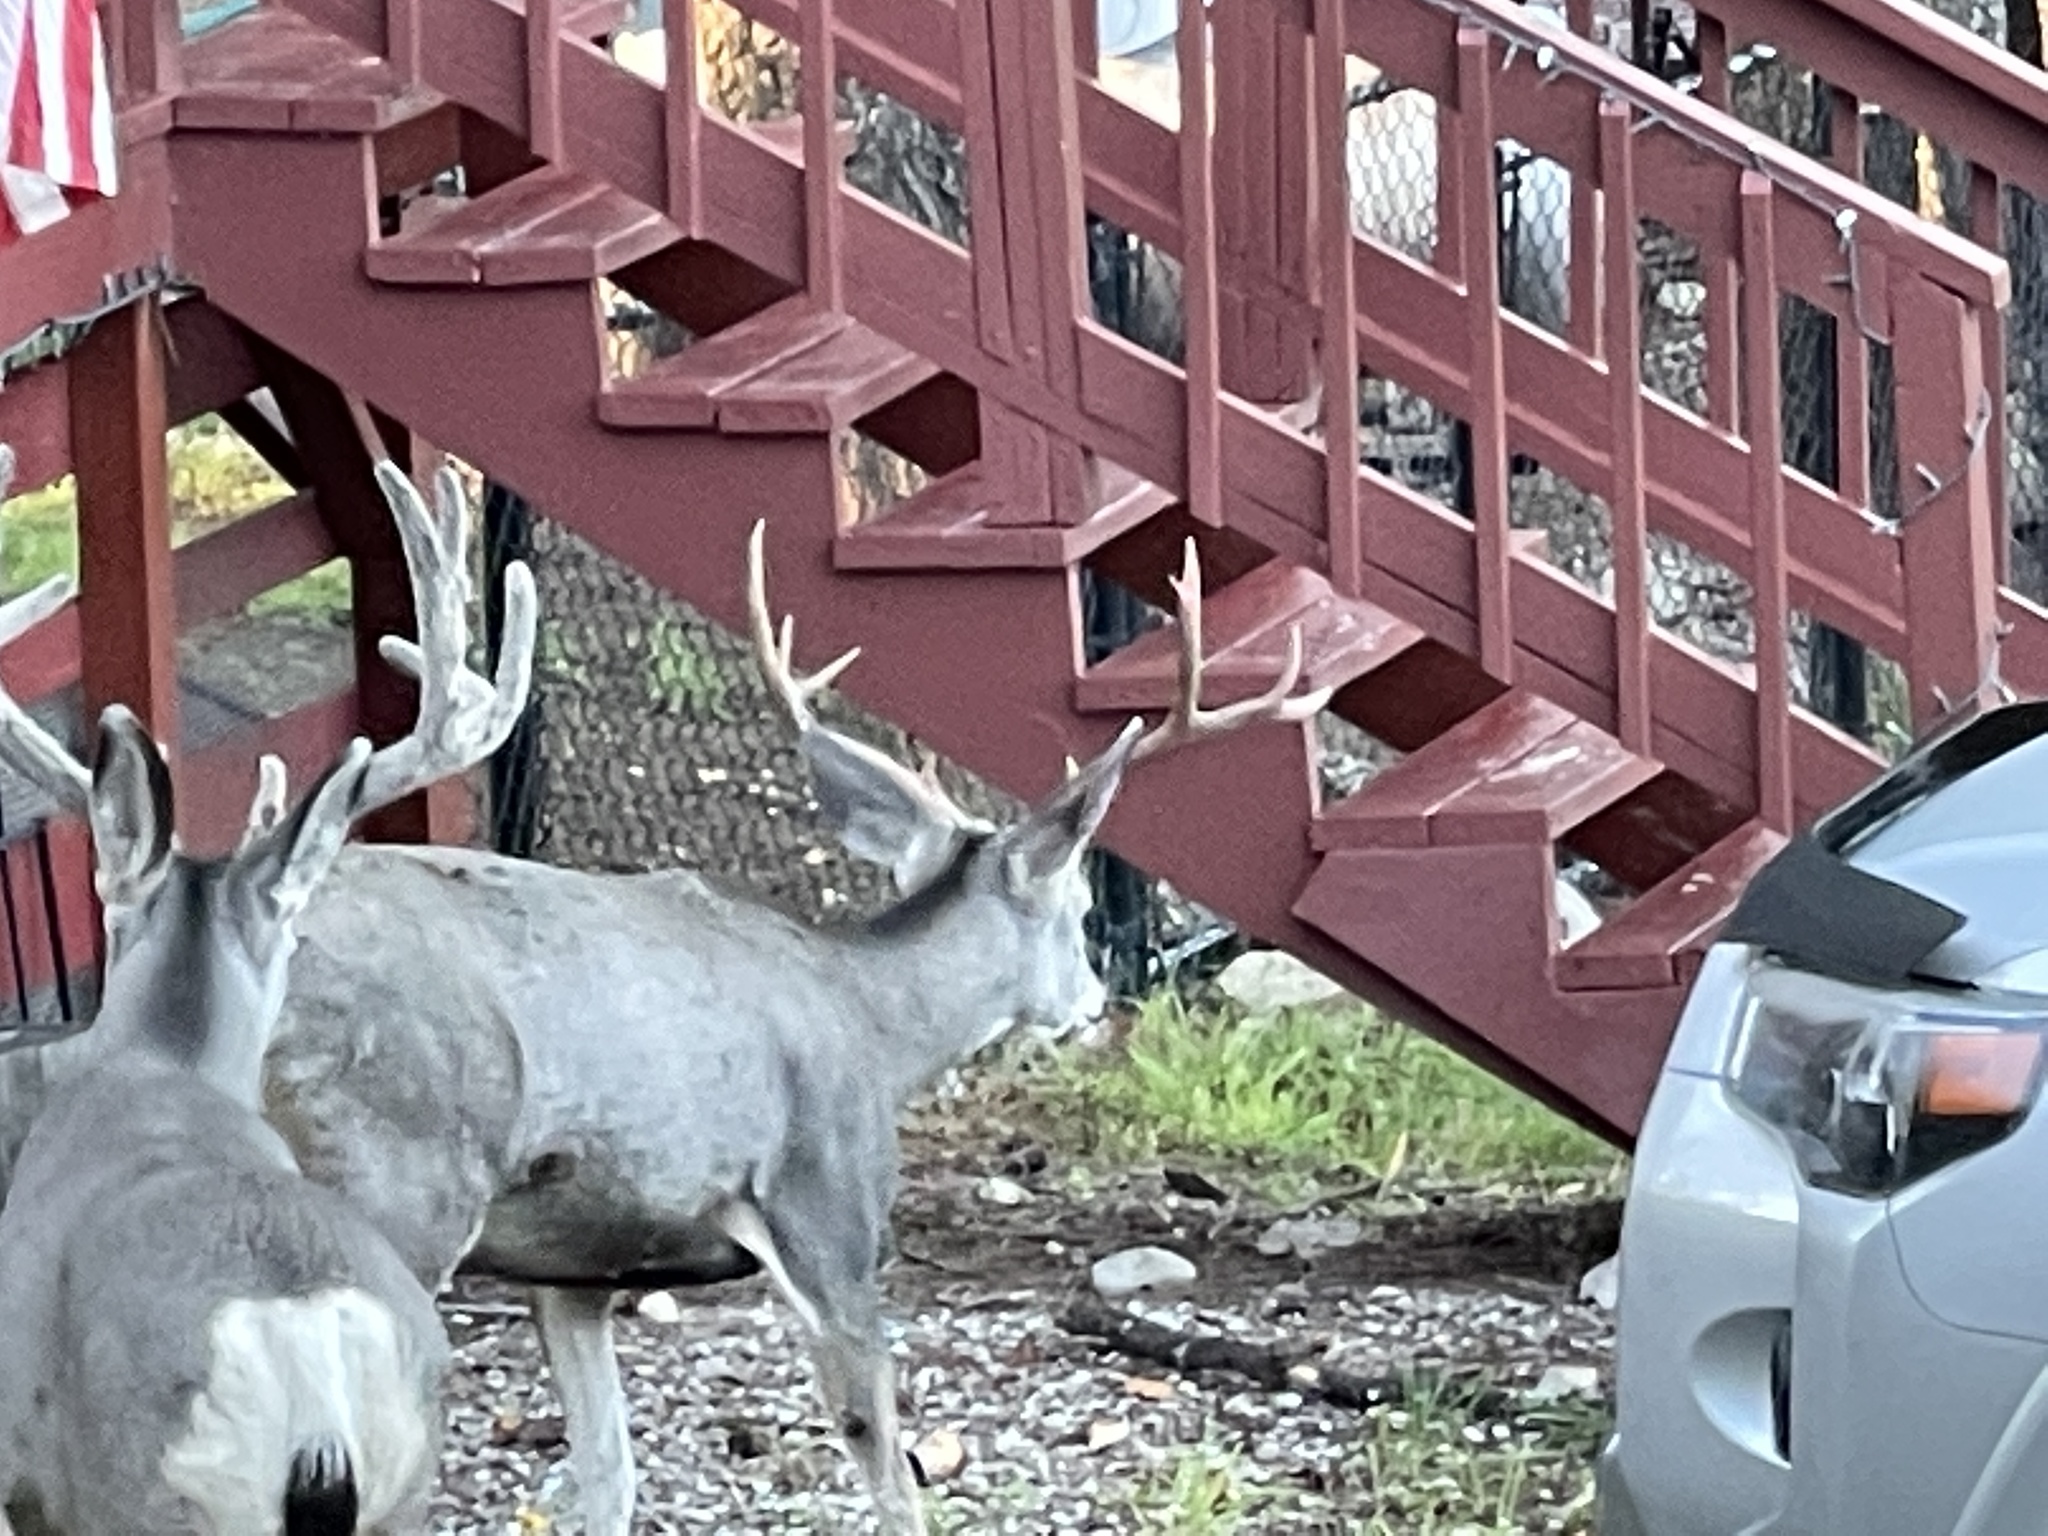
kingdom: Animalia
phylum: Chordata
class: Mammalia
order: Artiodactyla
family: Cervidae
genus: Odocoileus
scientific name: Odocoileus hemionus
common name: Mule deer
